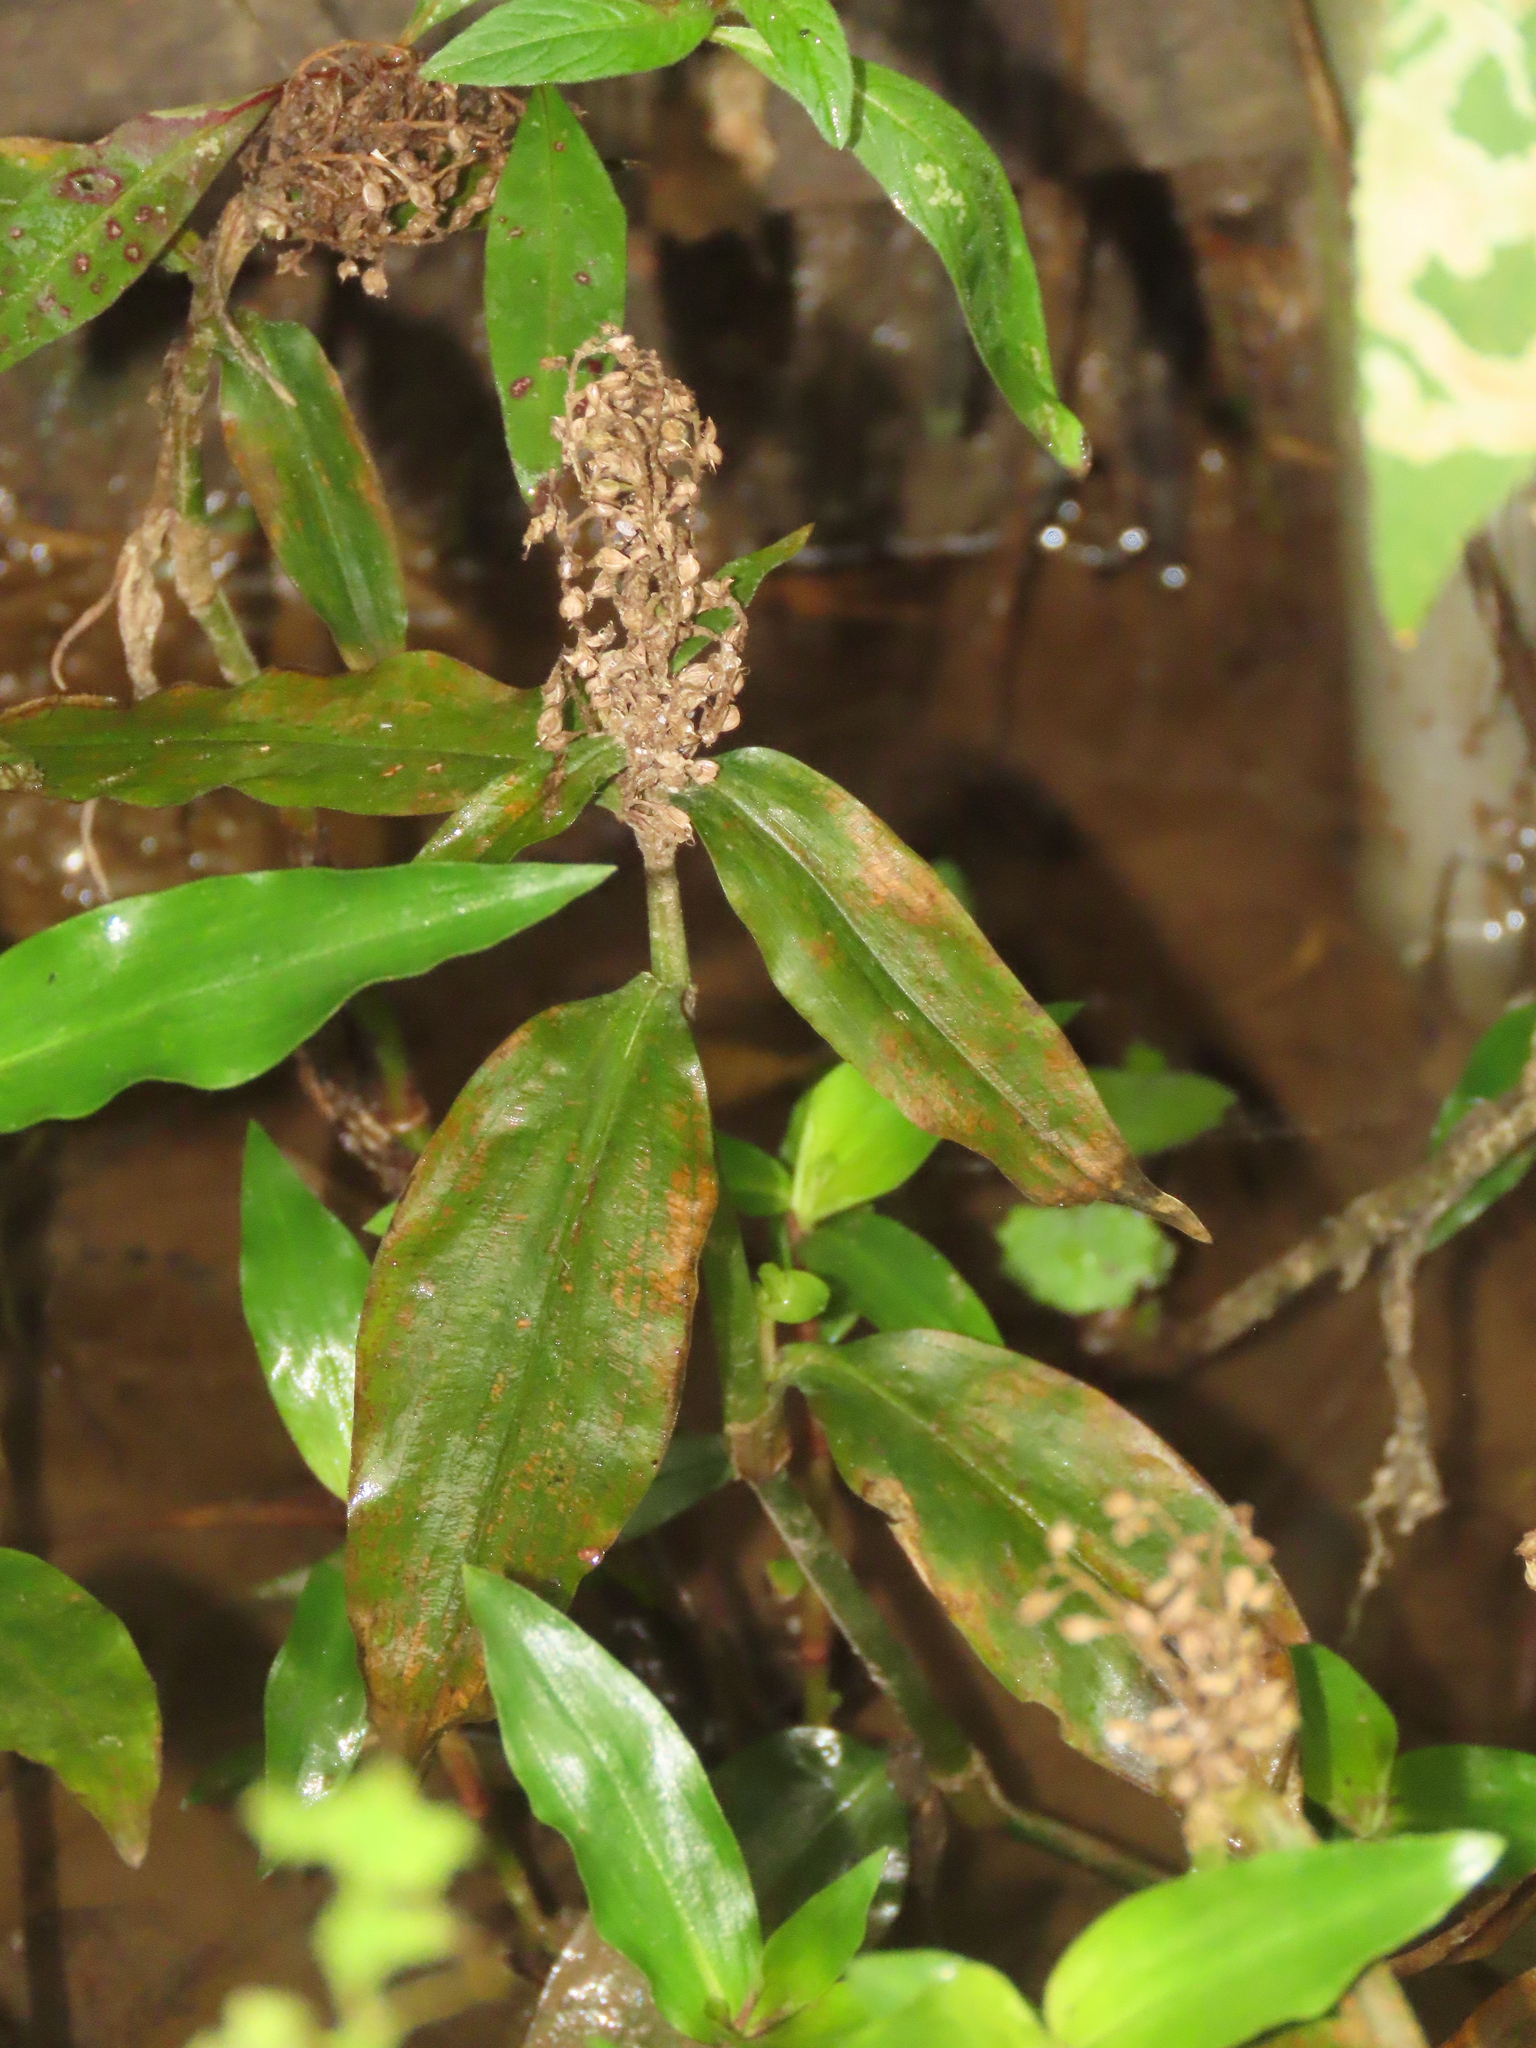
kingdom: Plantae
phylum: Tracheophyta
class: Liliopsida
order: Commelinales
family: Commelinaceae
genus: Floscopa
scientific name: Floscopa scandens
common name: Climbing flower cup
